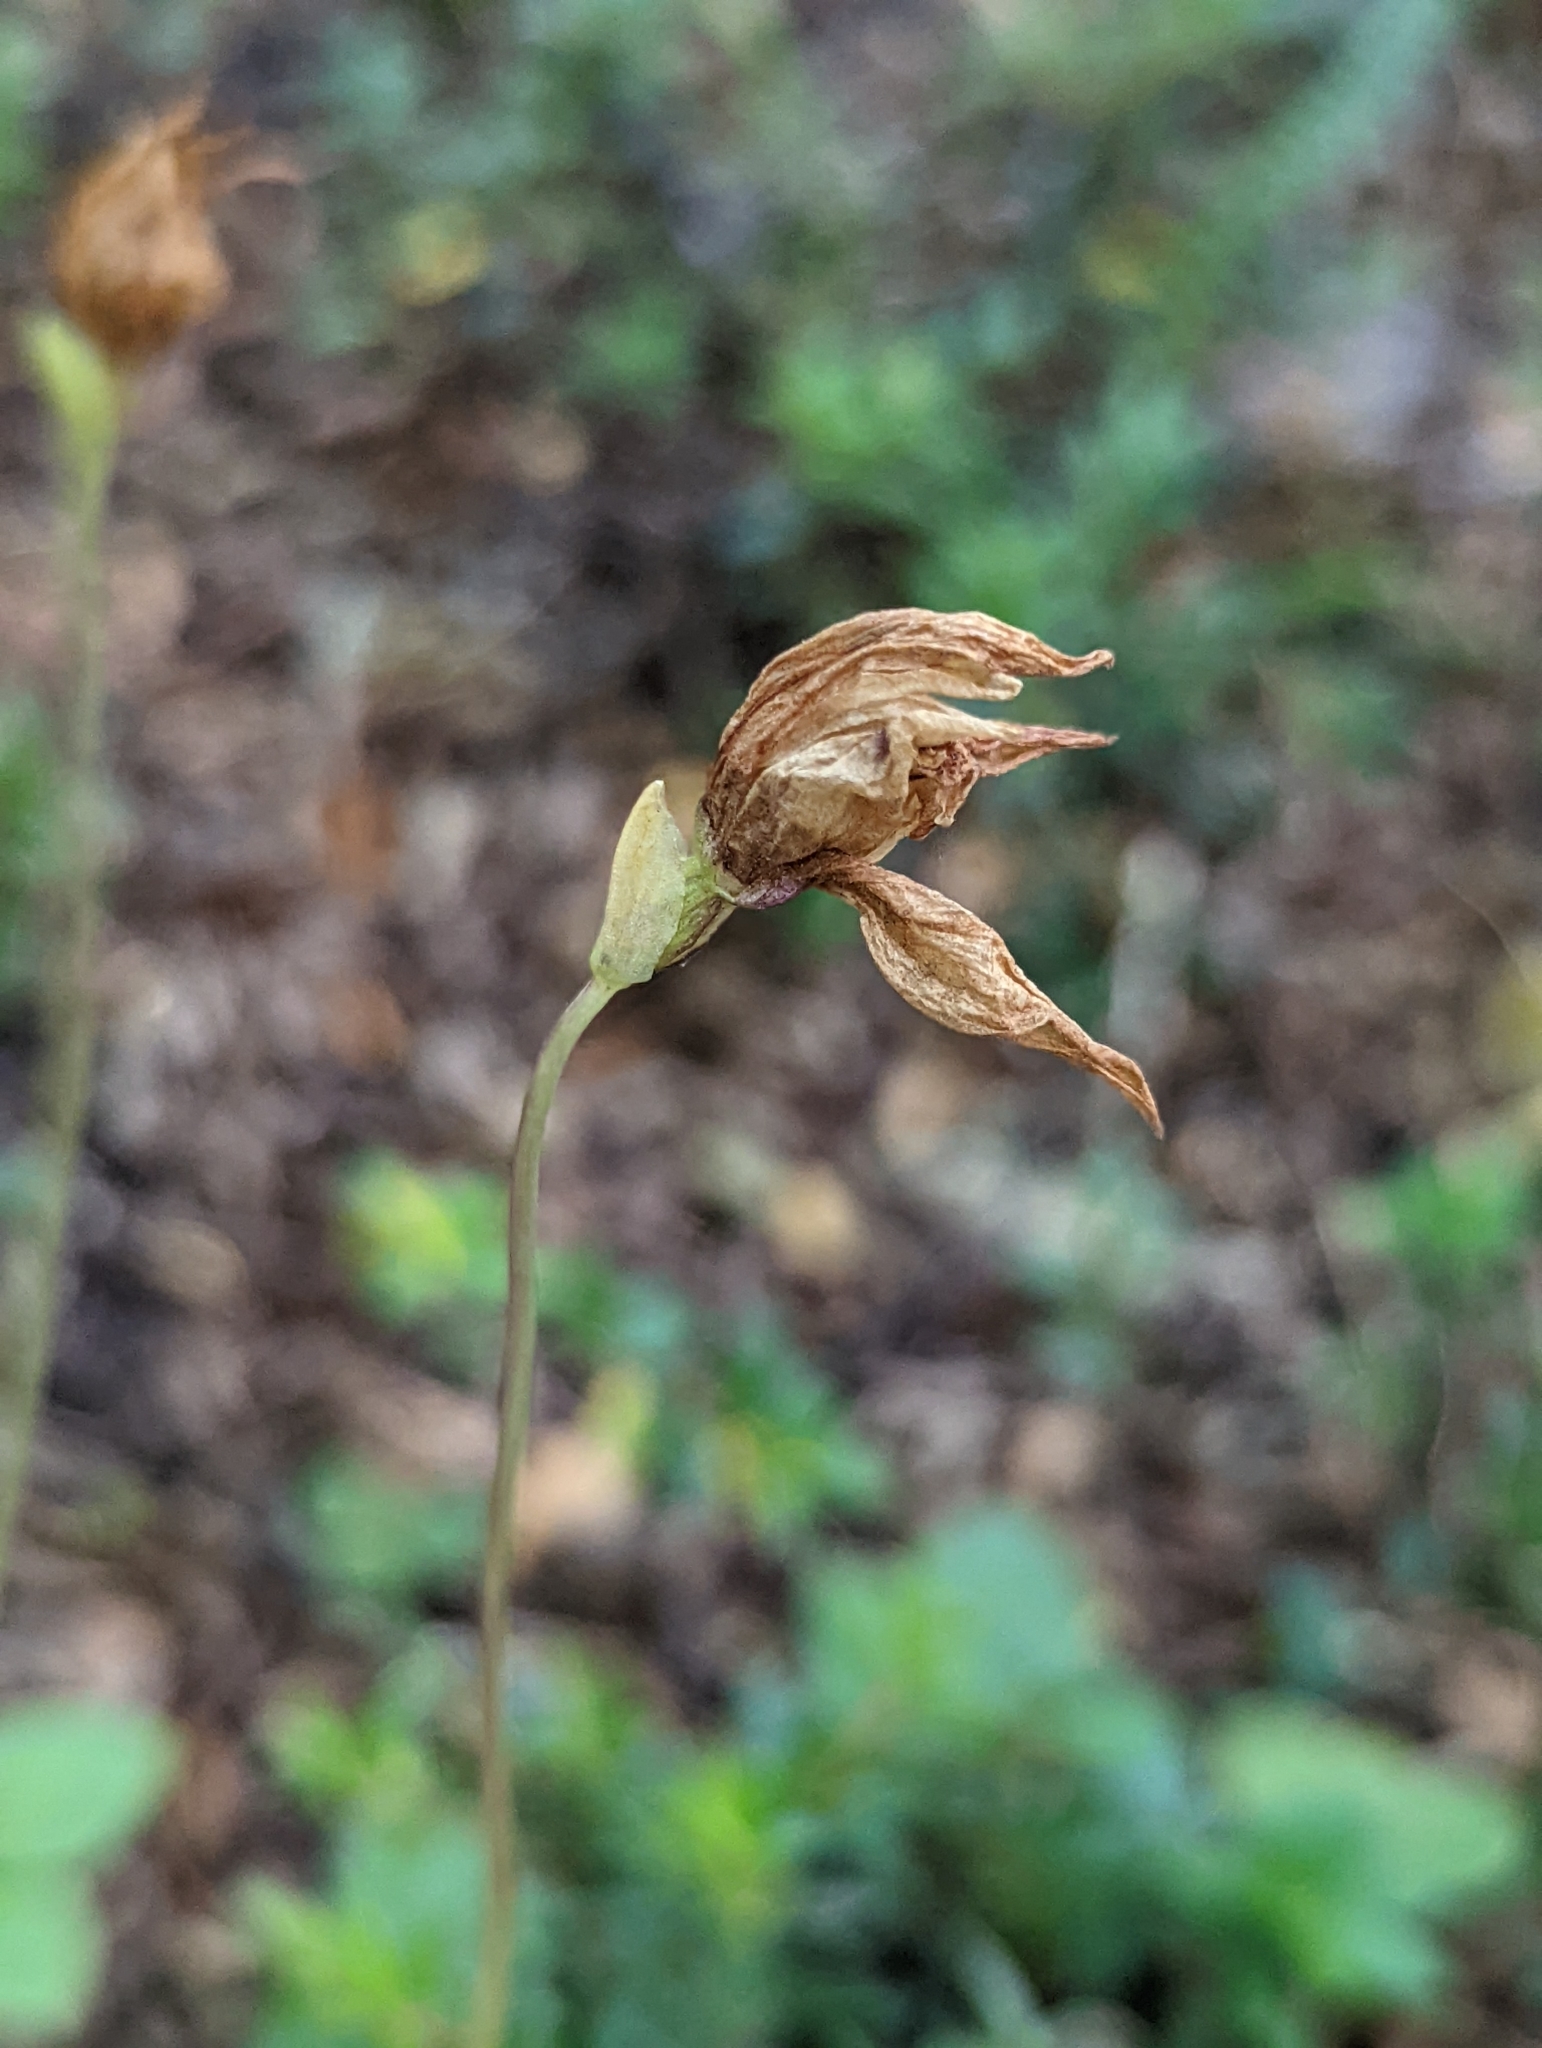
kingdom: Plantae
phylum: Tracheophyta
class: Liliopsida
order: Asparagales
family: Orchidaceae
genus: Codonorchis
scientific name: Codonorchis lessonii
